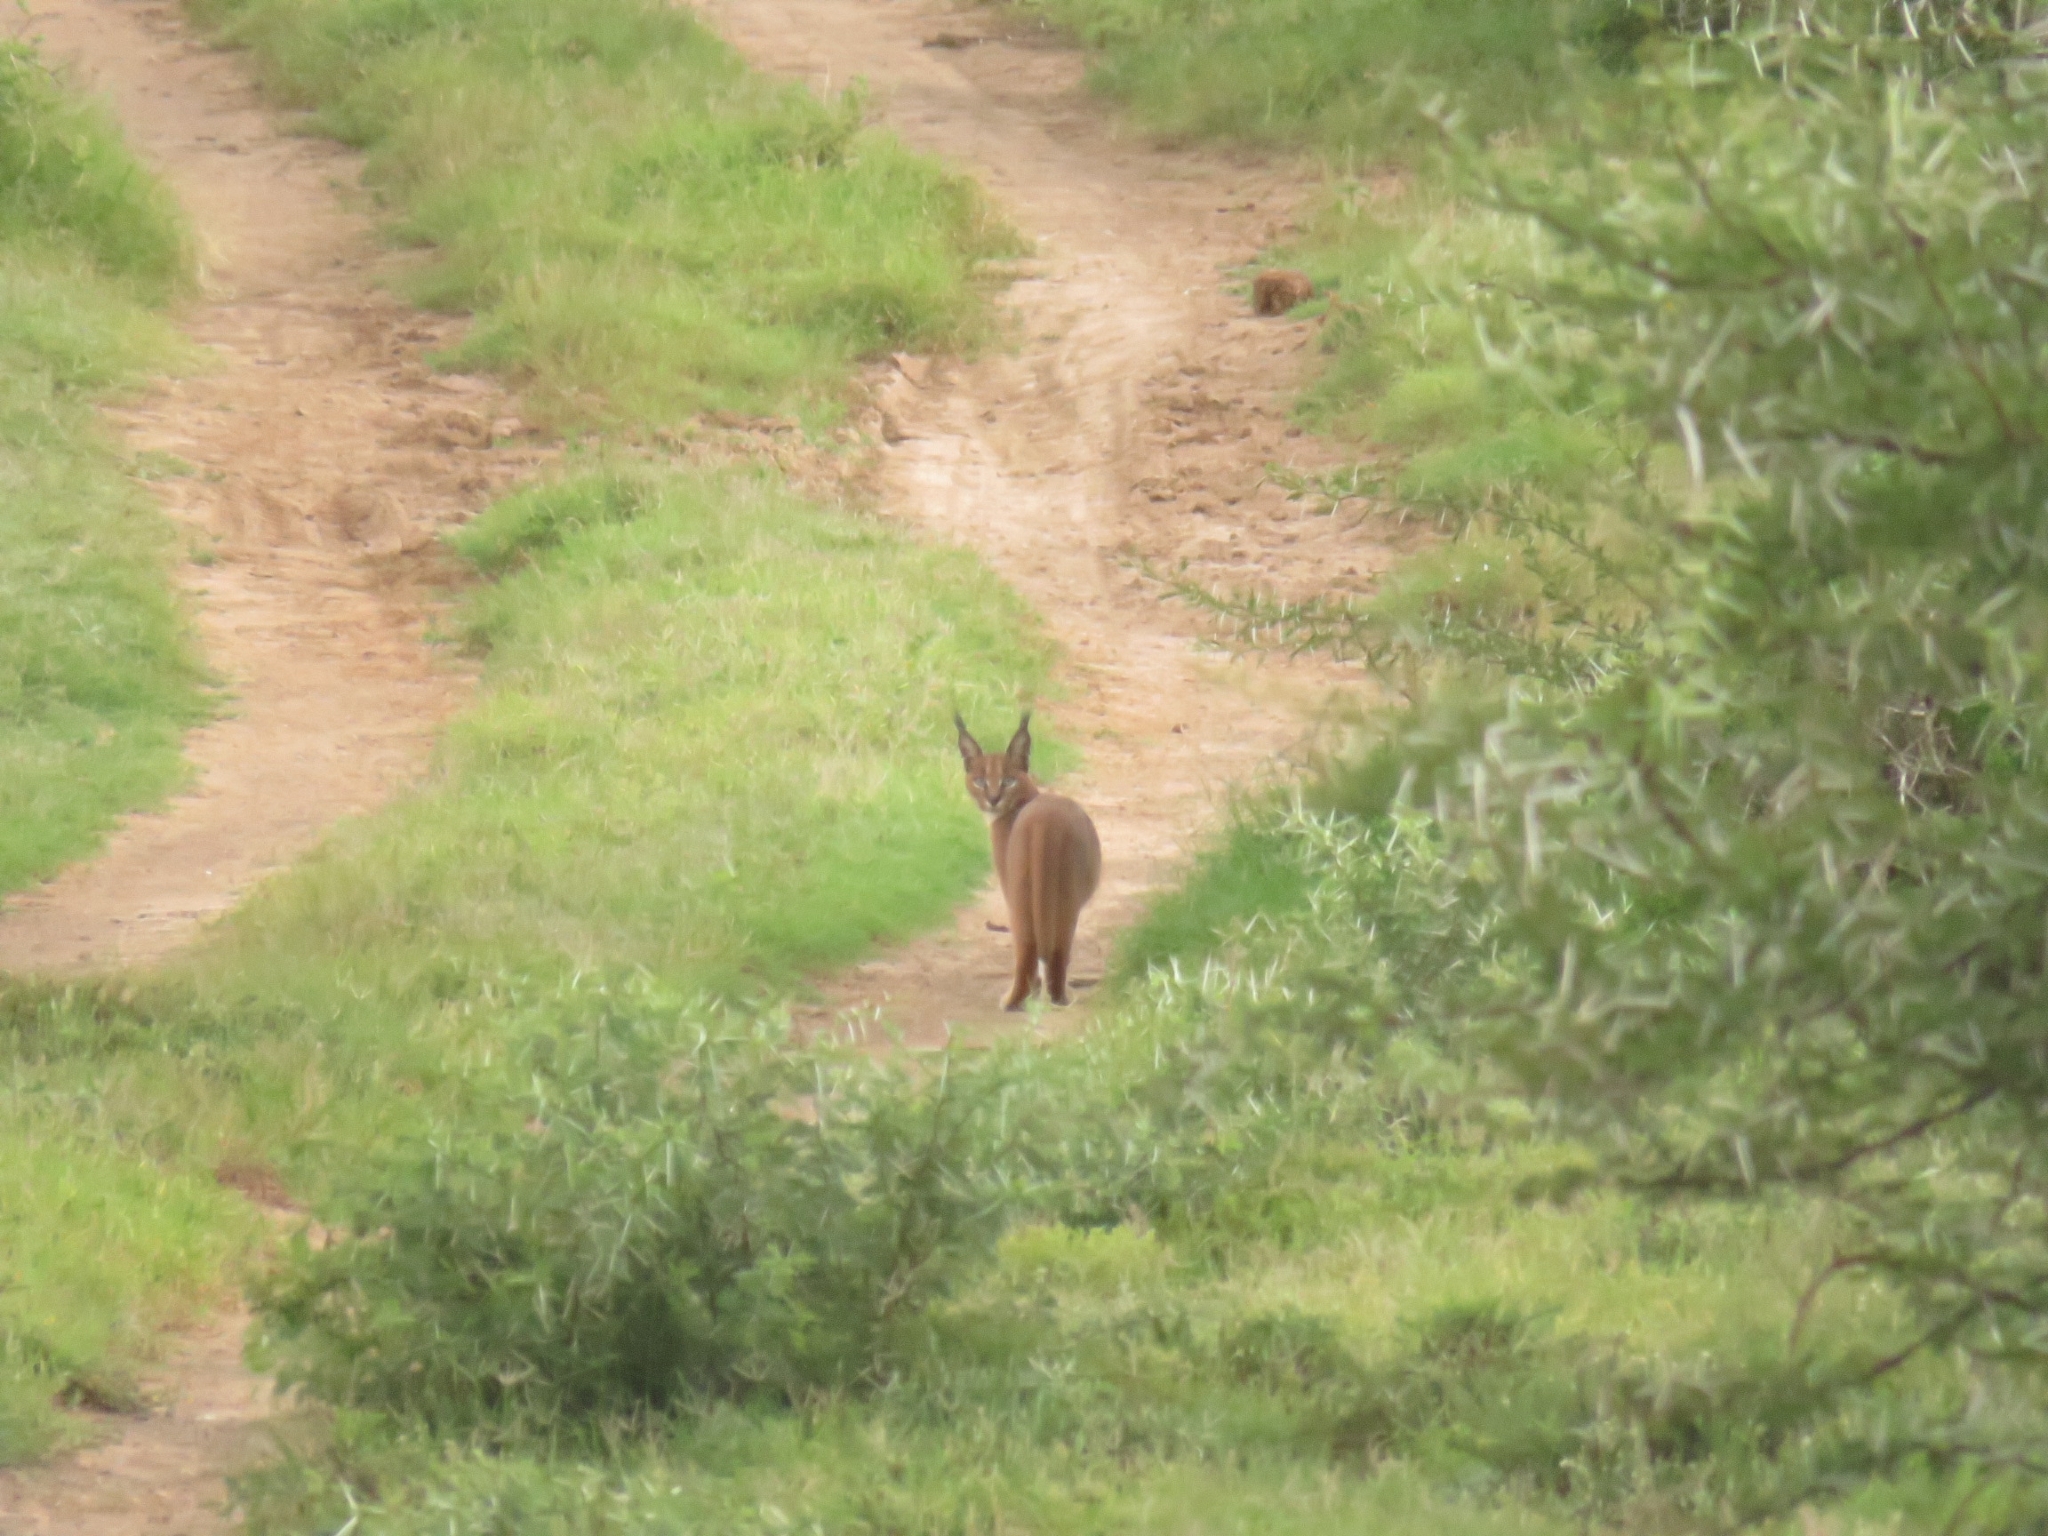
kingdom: Animalia
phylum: Chordata
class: Mammalia
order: Carnivora
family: Felidae
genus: Caracal
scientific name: Caracal caracal
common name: Caracal
